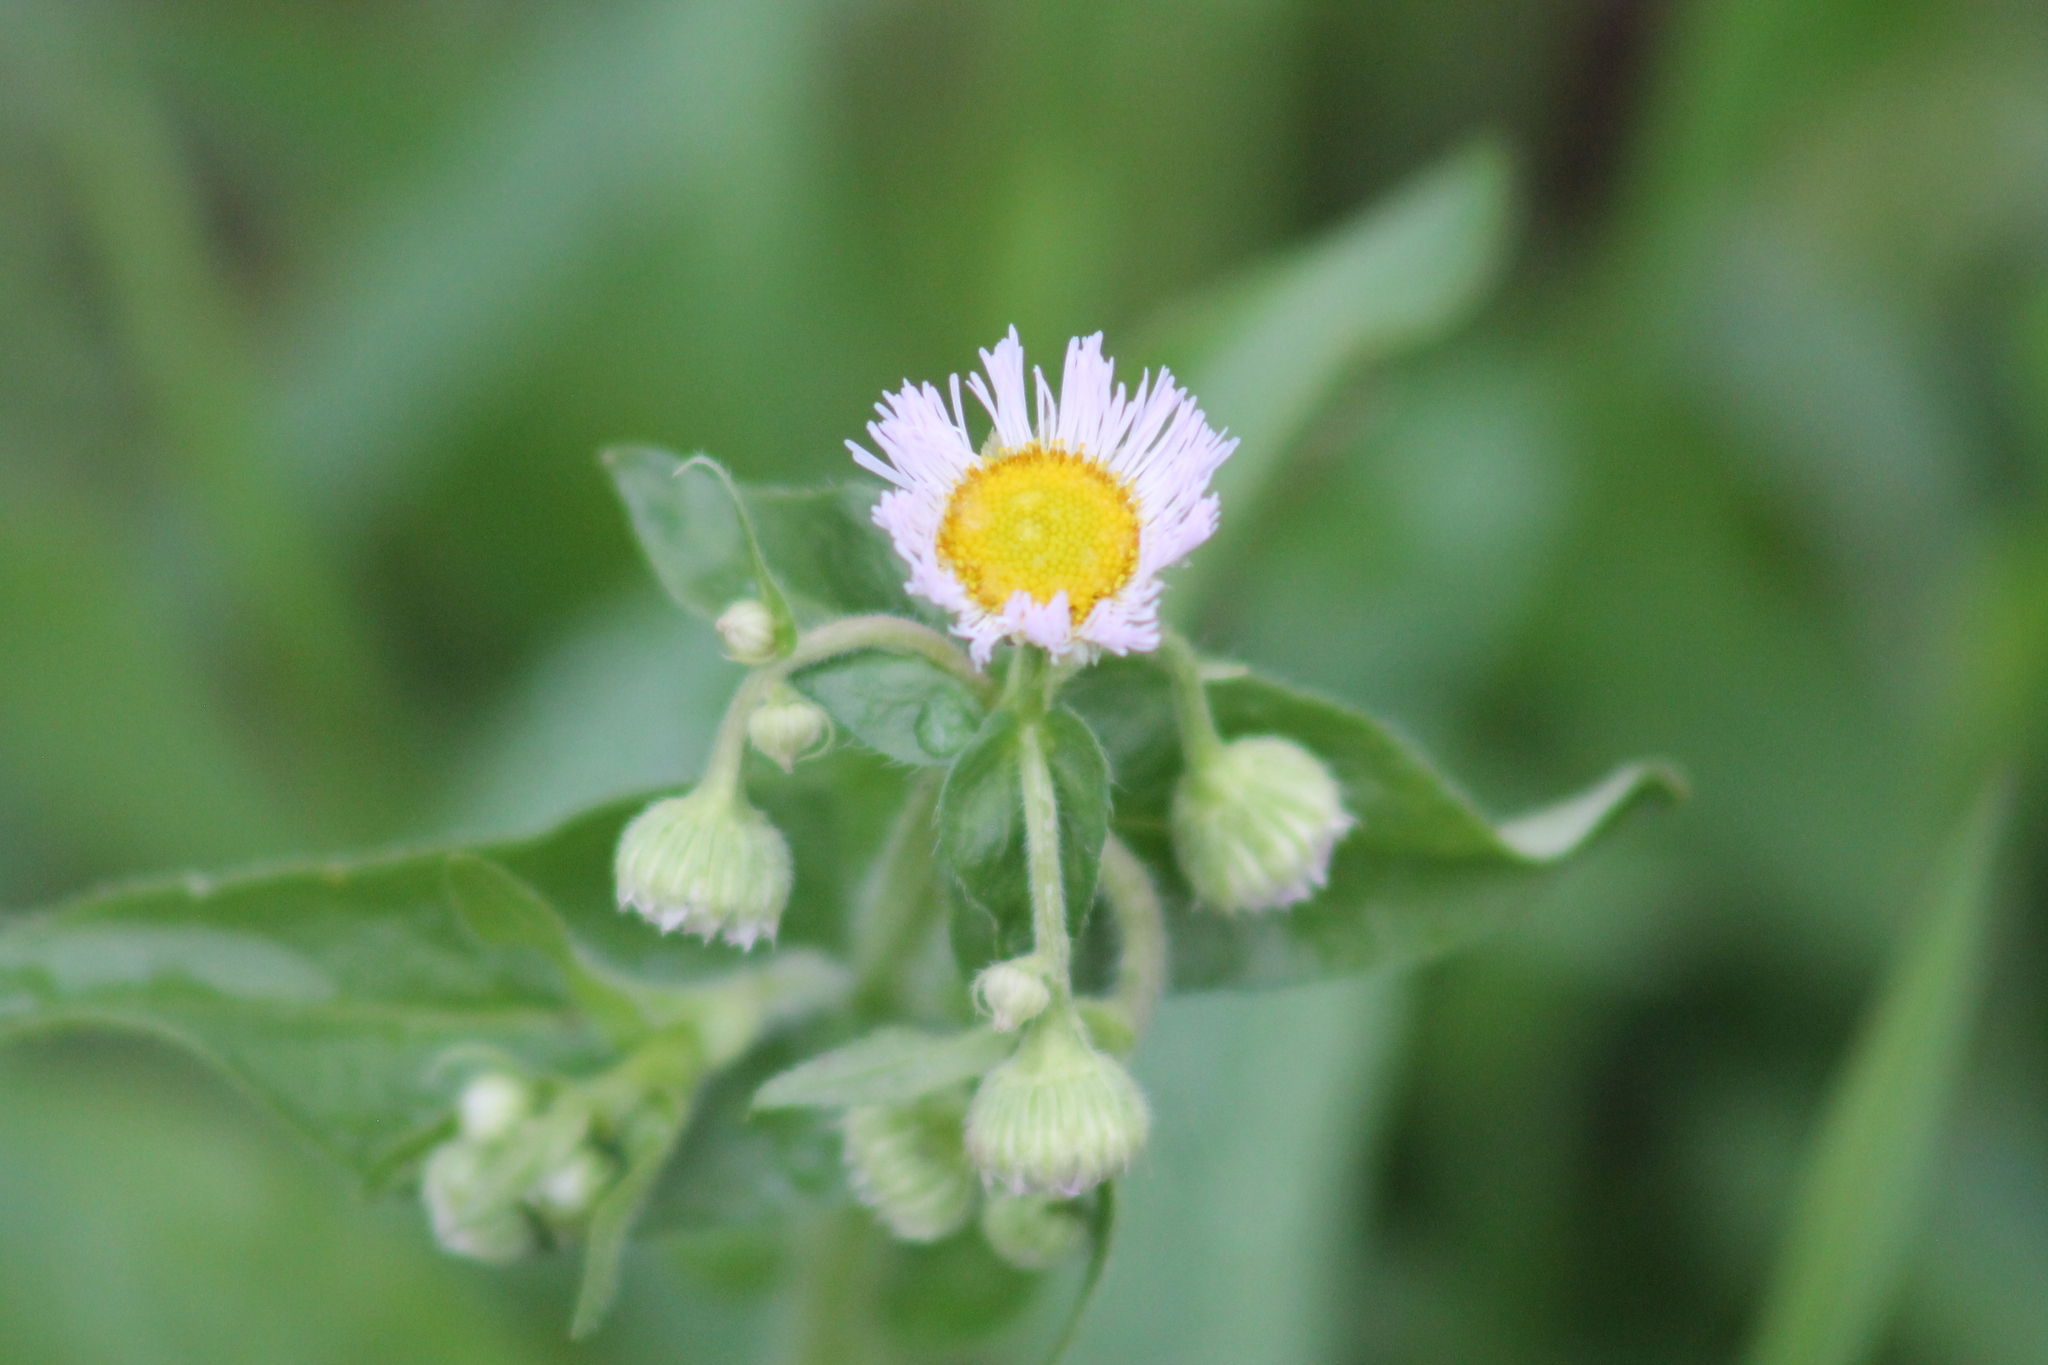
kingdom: Plantae
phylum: Tracheophyta
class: Magnoliopsida
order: Asterales
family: Asteraceae
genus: Erigeron
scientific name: Erigeron philadelphicus
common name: Robin's-plantain
